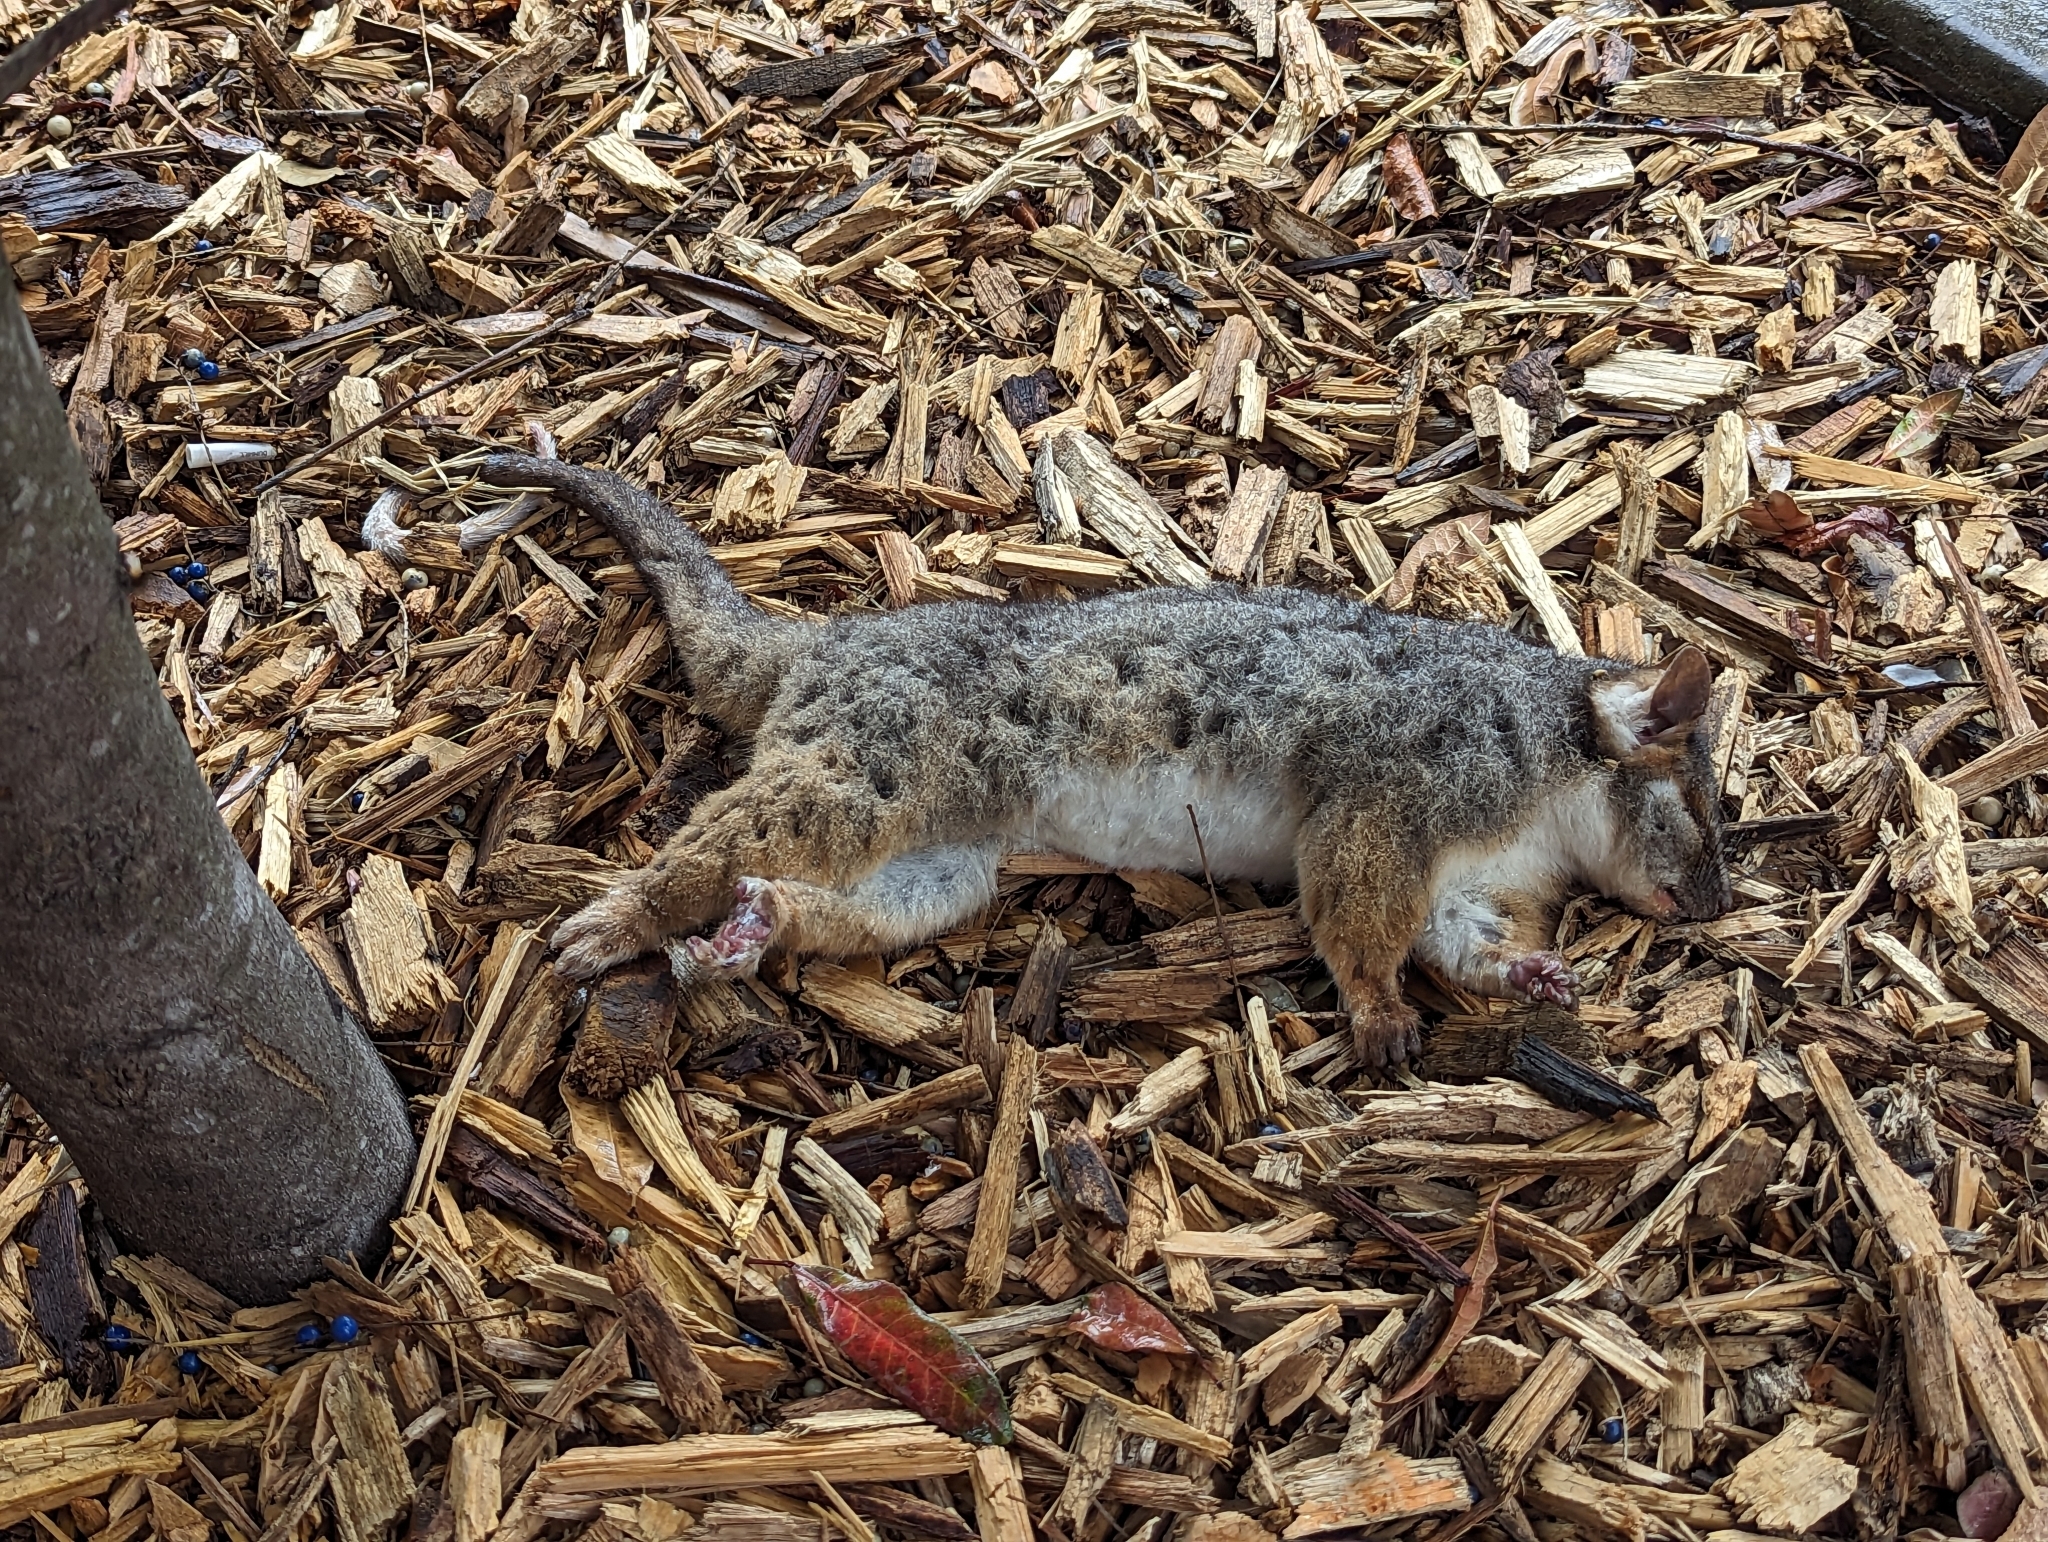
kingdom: Animalia
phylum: Chordata
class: Mammalia
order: Diprotodontia
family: Pseudocheiridae
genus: Pseudocheirus
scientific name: Pseudocheirus peregrinus
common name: Common ringtail possum
